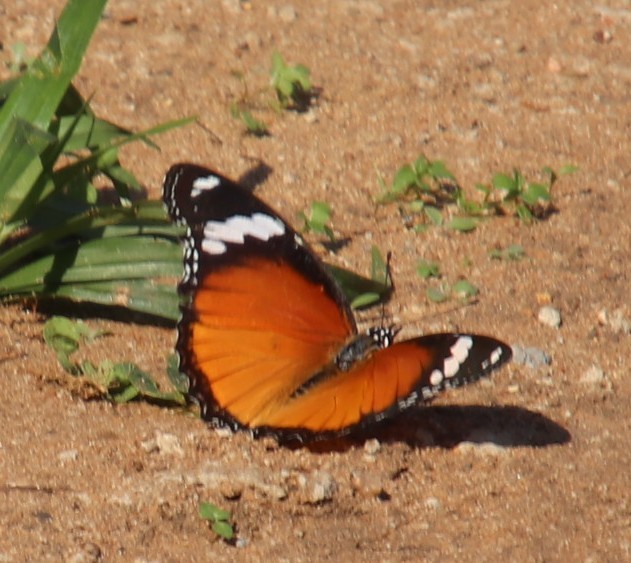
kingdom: Animalia
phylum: Arthropoda
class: Insecta
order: Lepidoptera
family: Nymphalidae
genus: Hypolimnas
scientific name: Hypolimnas misippus
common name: False plain tiger
